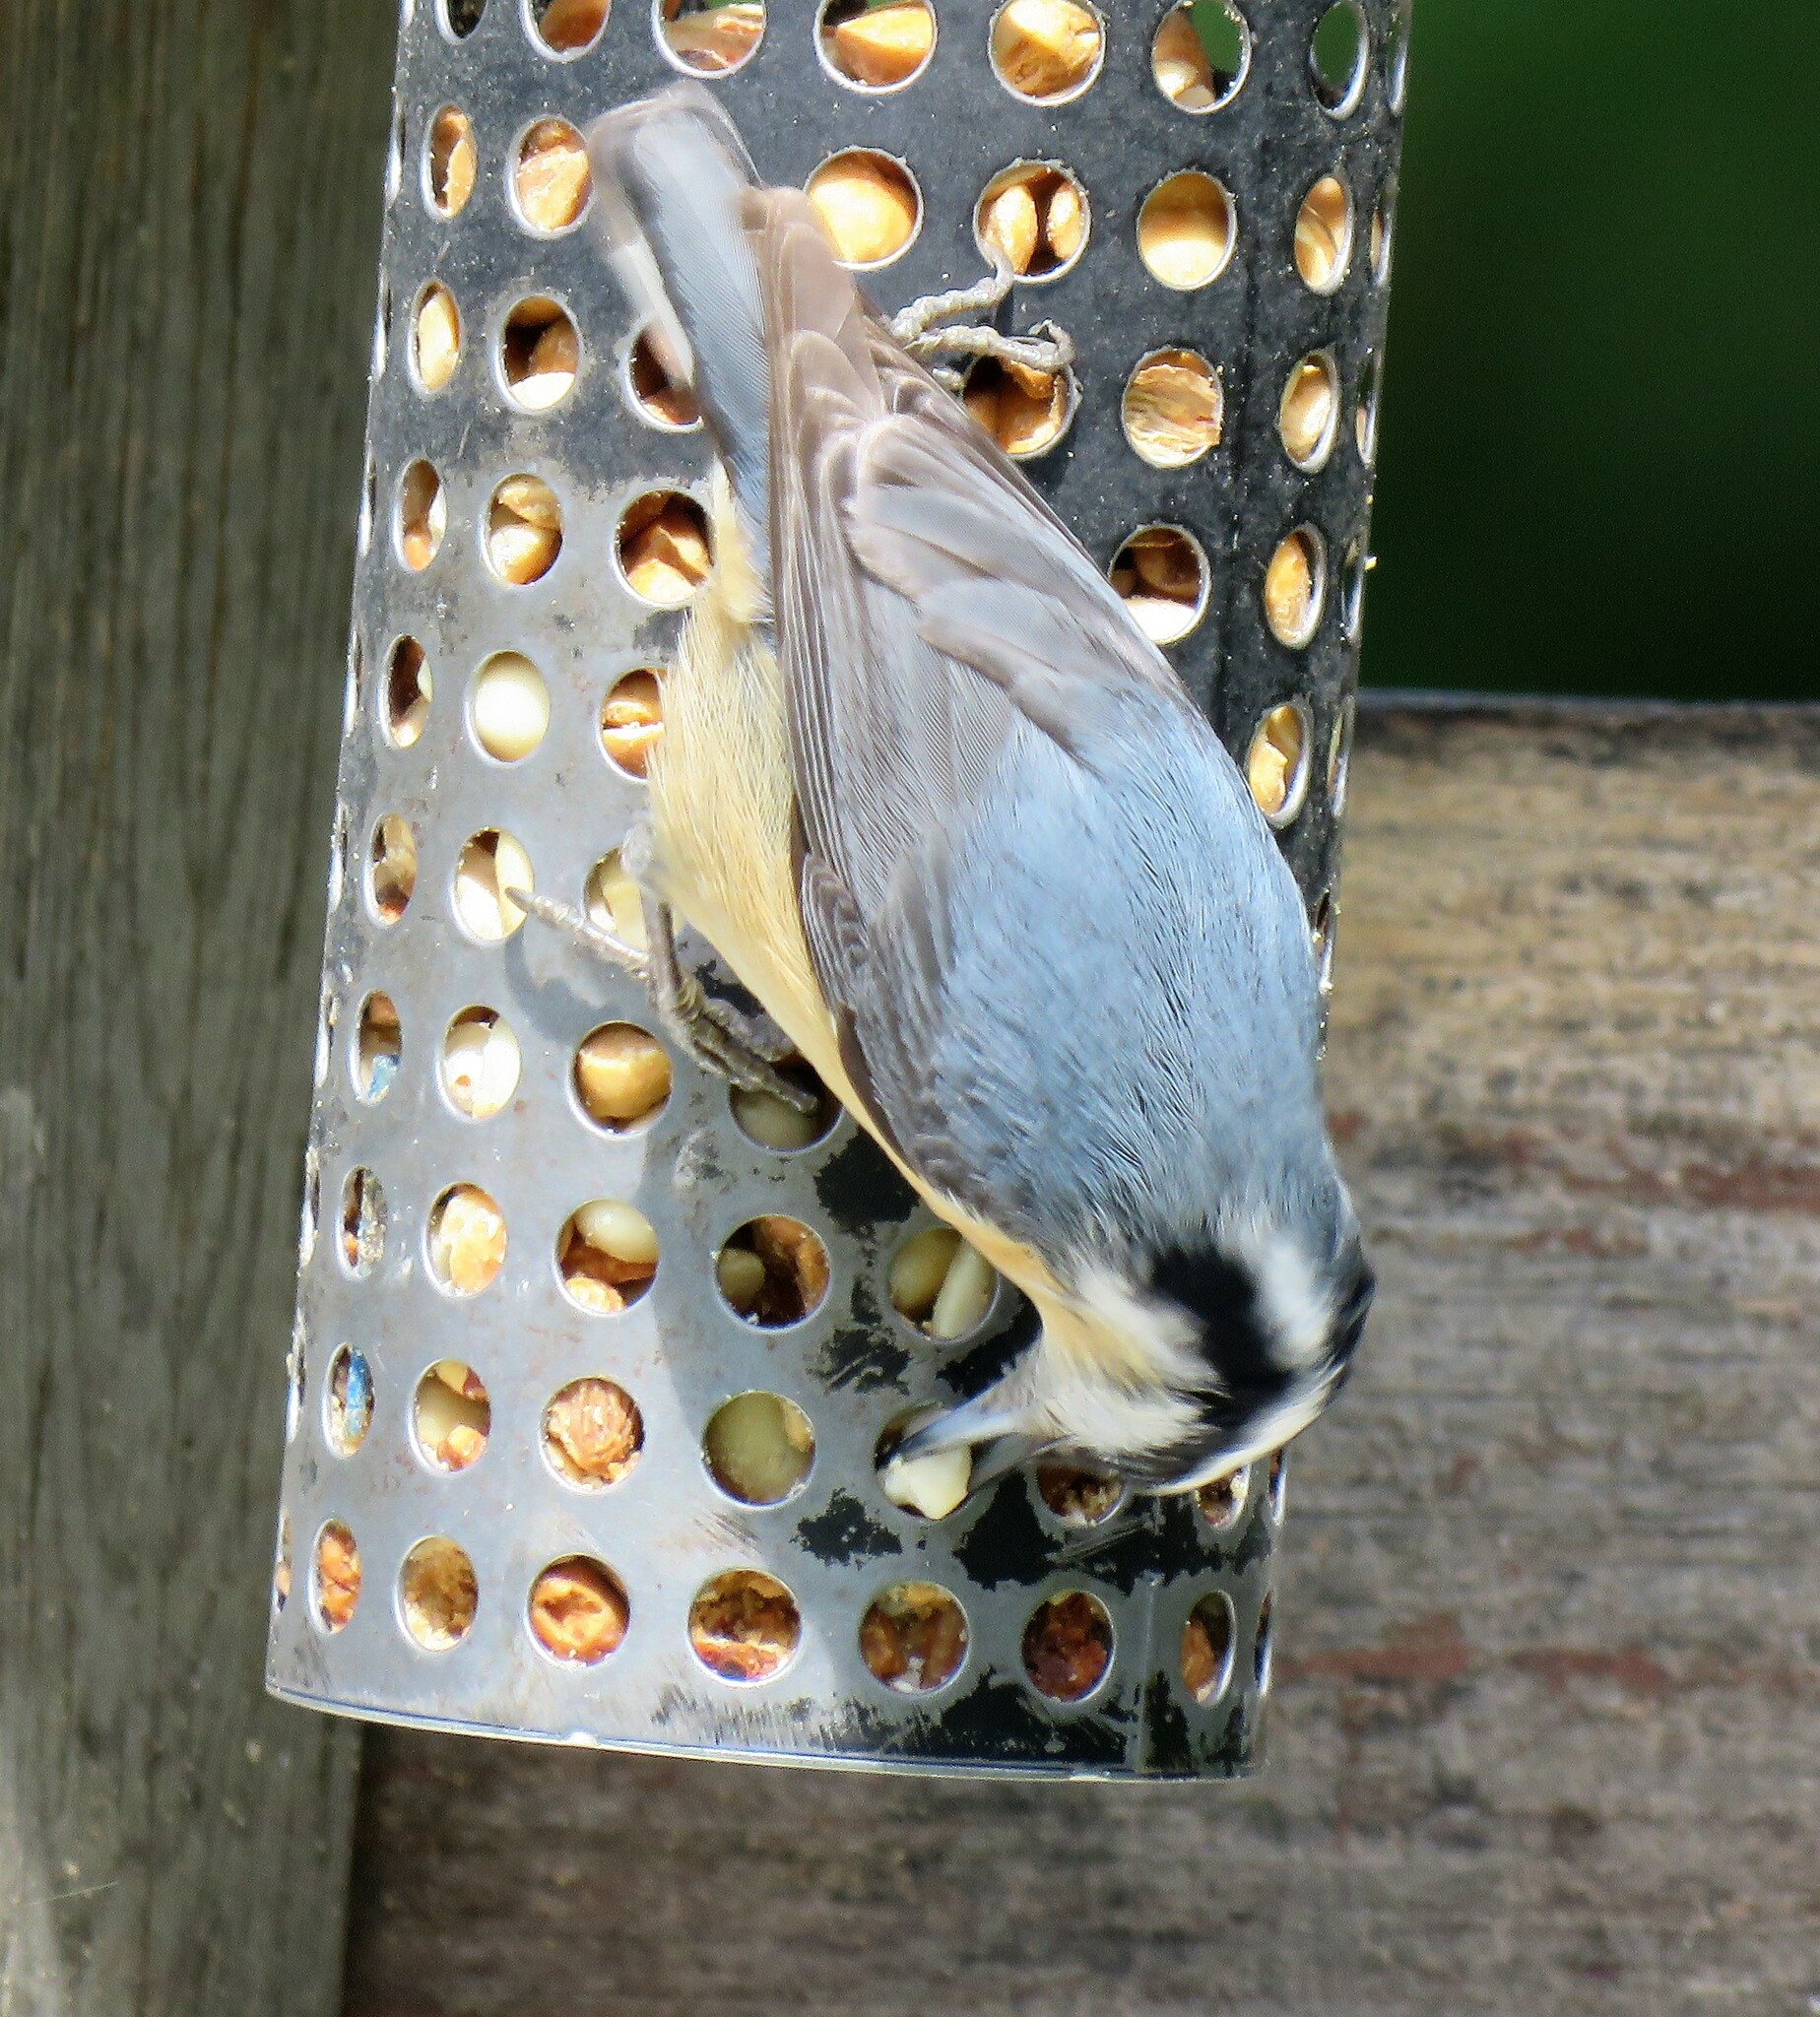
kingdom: Animalia
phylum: Chordata
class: Aves
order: Passeriformes
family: Sittidae
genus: Sitta
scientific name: Sitta canadensis
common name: Red-breasted nuthatch
